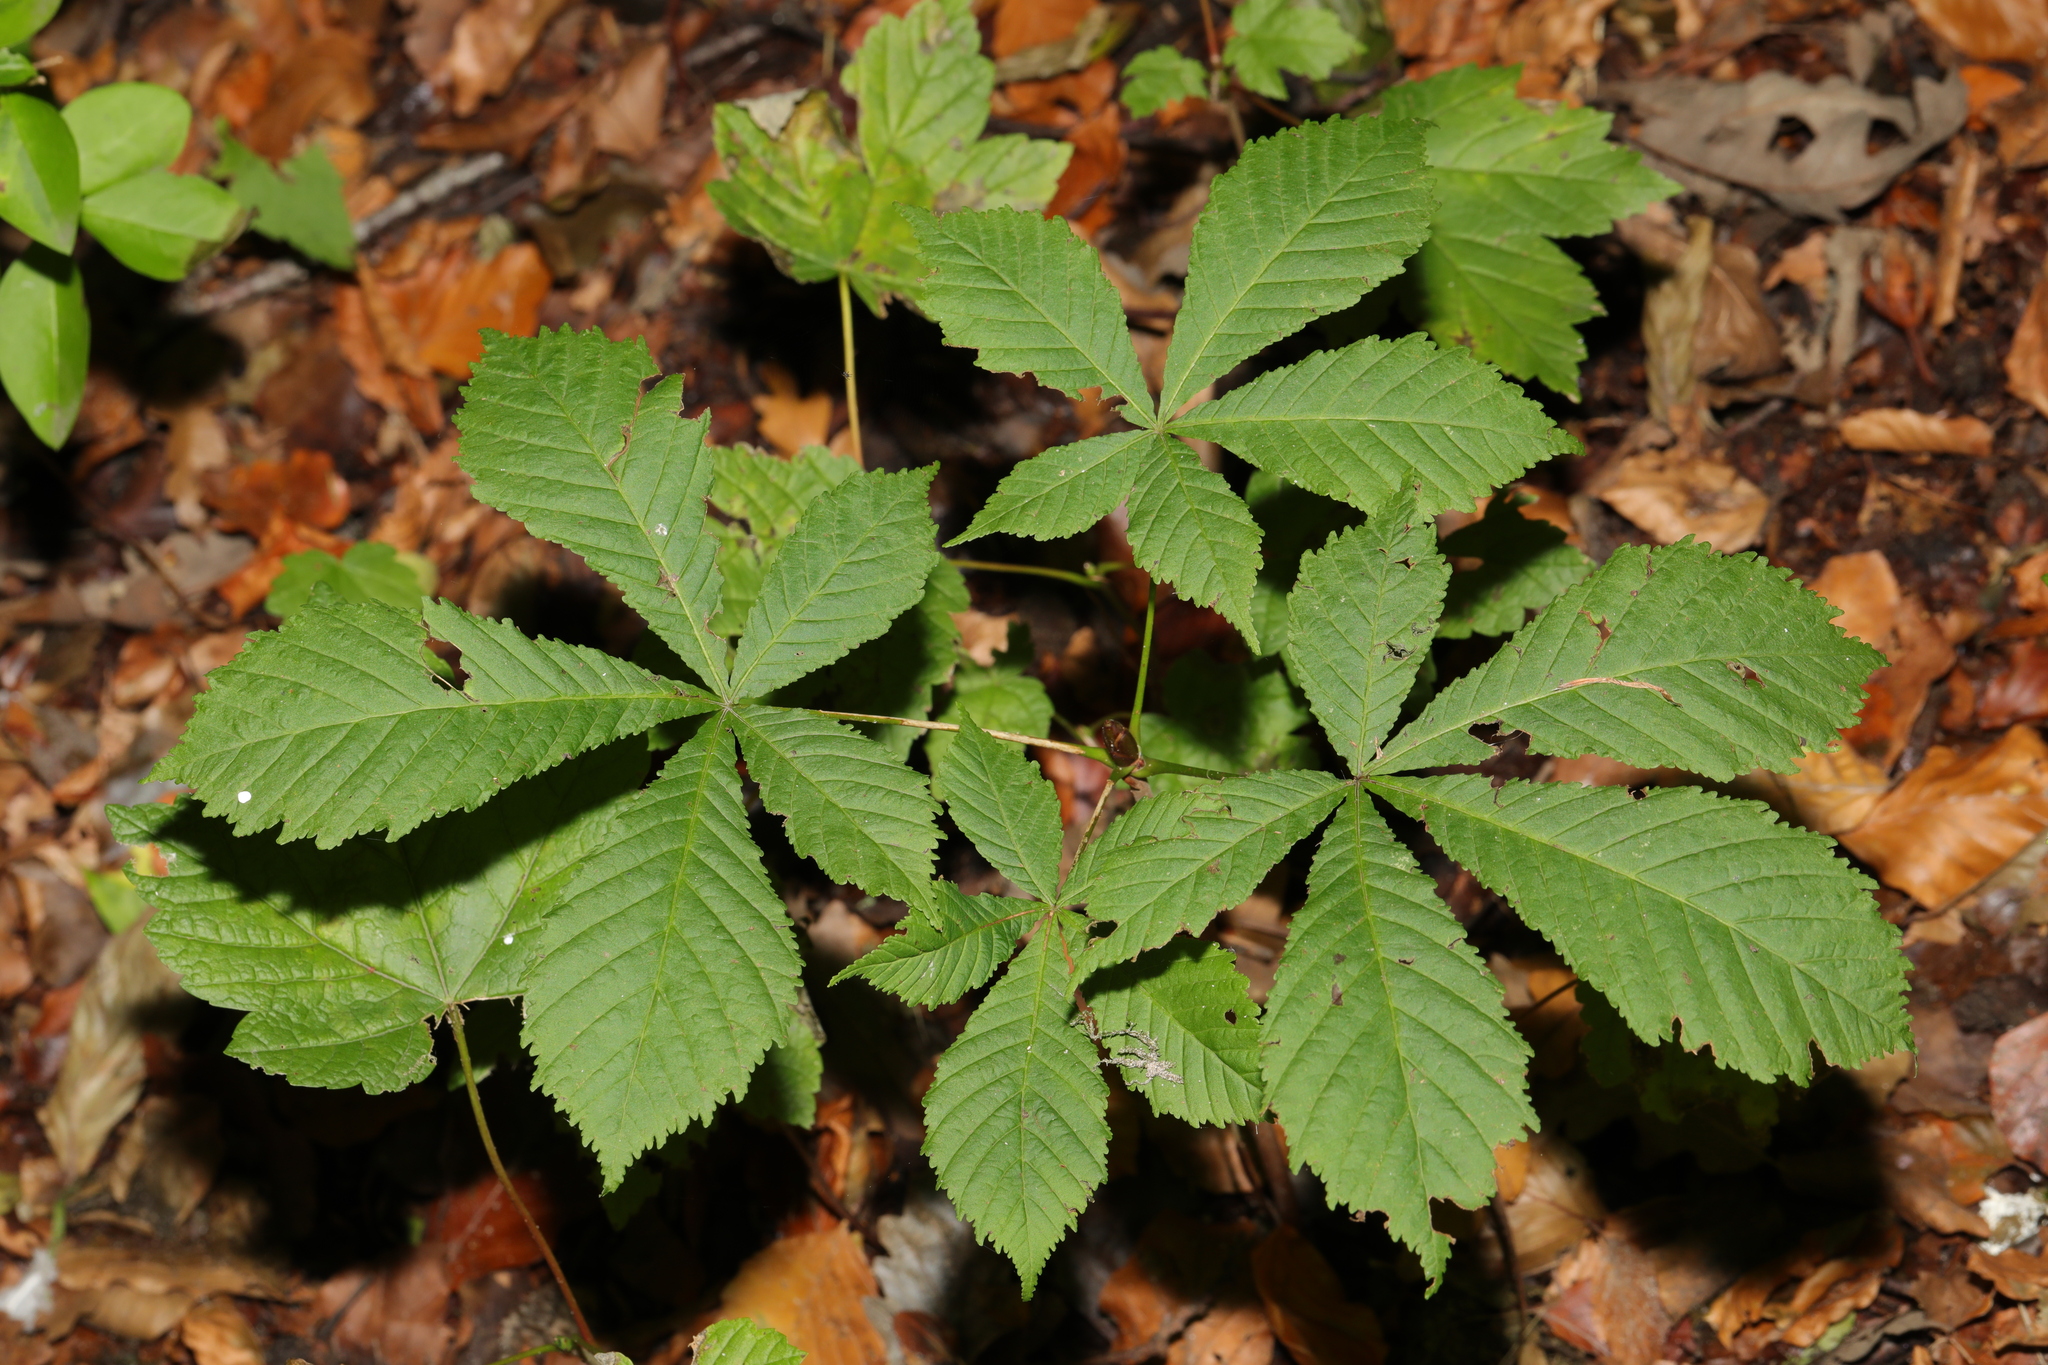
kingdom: Plantae
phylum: Tracheophyta
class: Magnoliopsida
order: Sapindales
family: Sapindaceae
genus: Aesculus
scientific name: Aesculus hippocastanum
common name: Horse-chestnut
